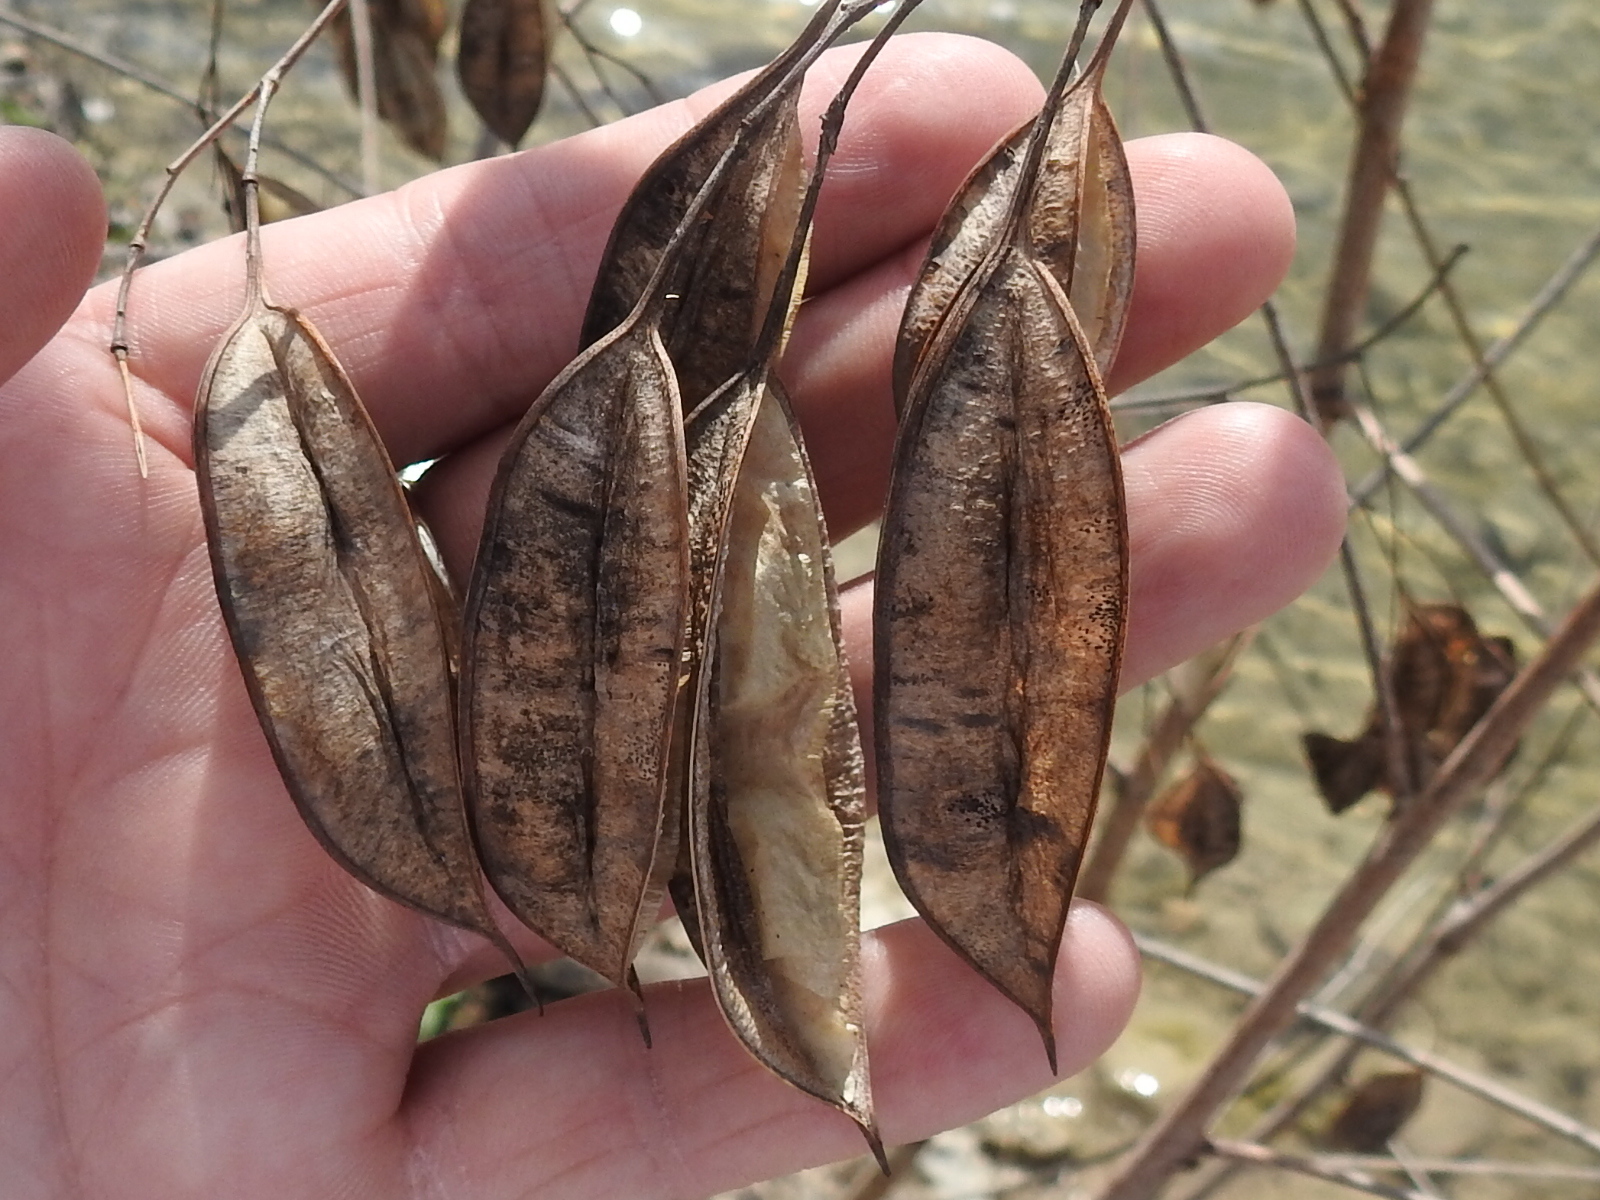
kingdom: Plantae
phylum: Tracheophyta
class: Magnoliopsida
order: Fabales
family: Fabaceae
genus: Sesbania
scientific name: Sesbania vesicaria
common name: Bagpod
